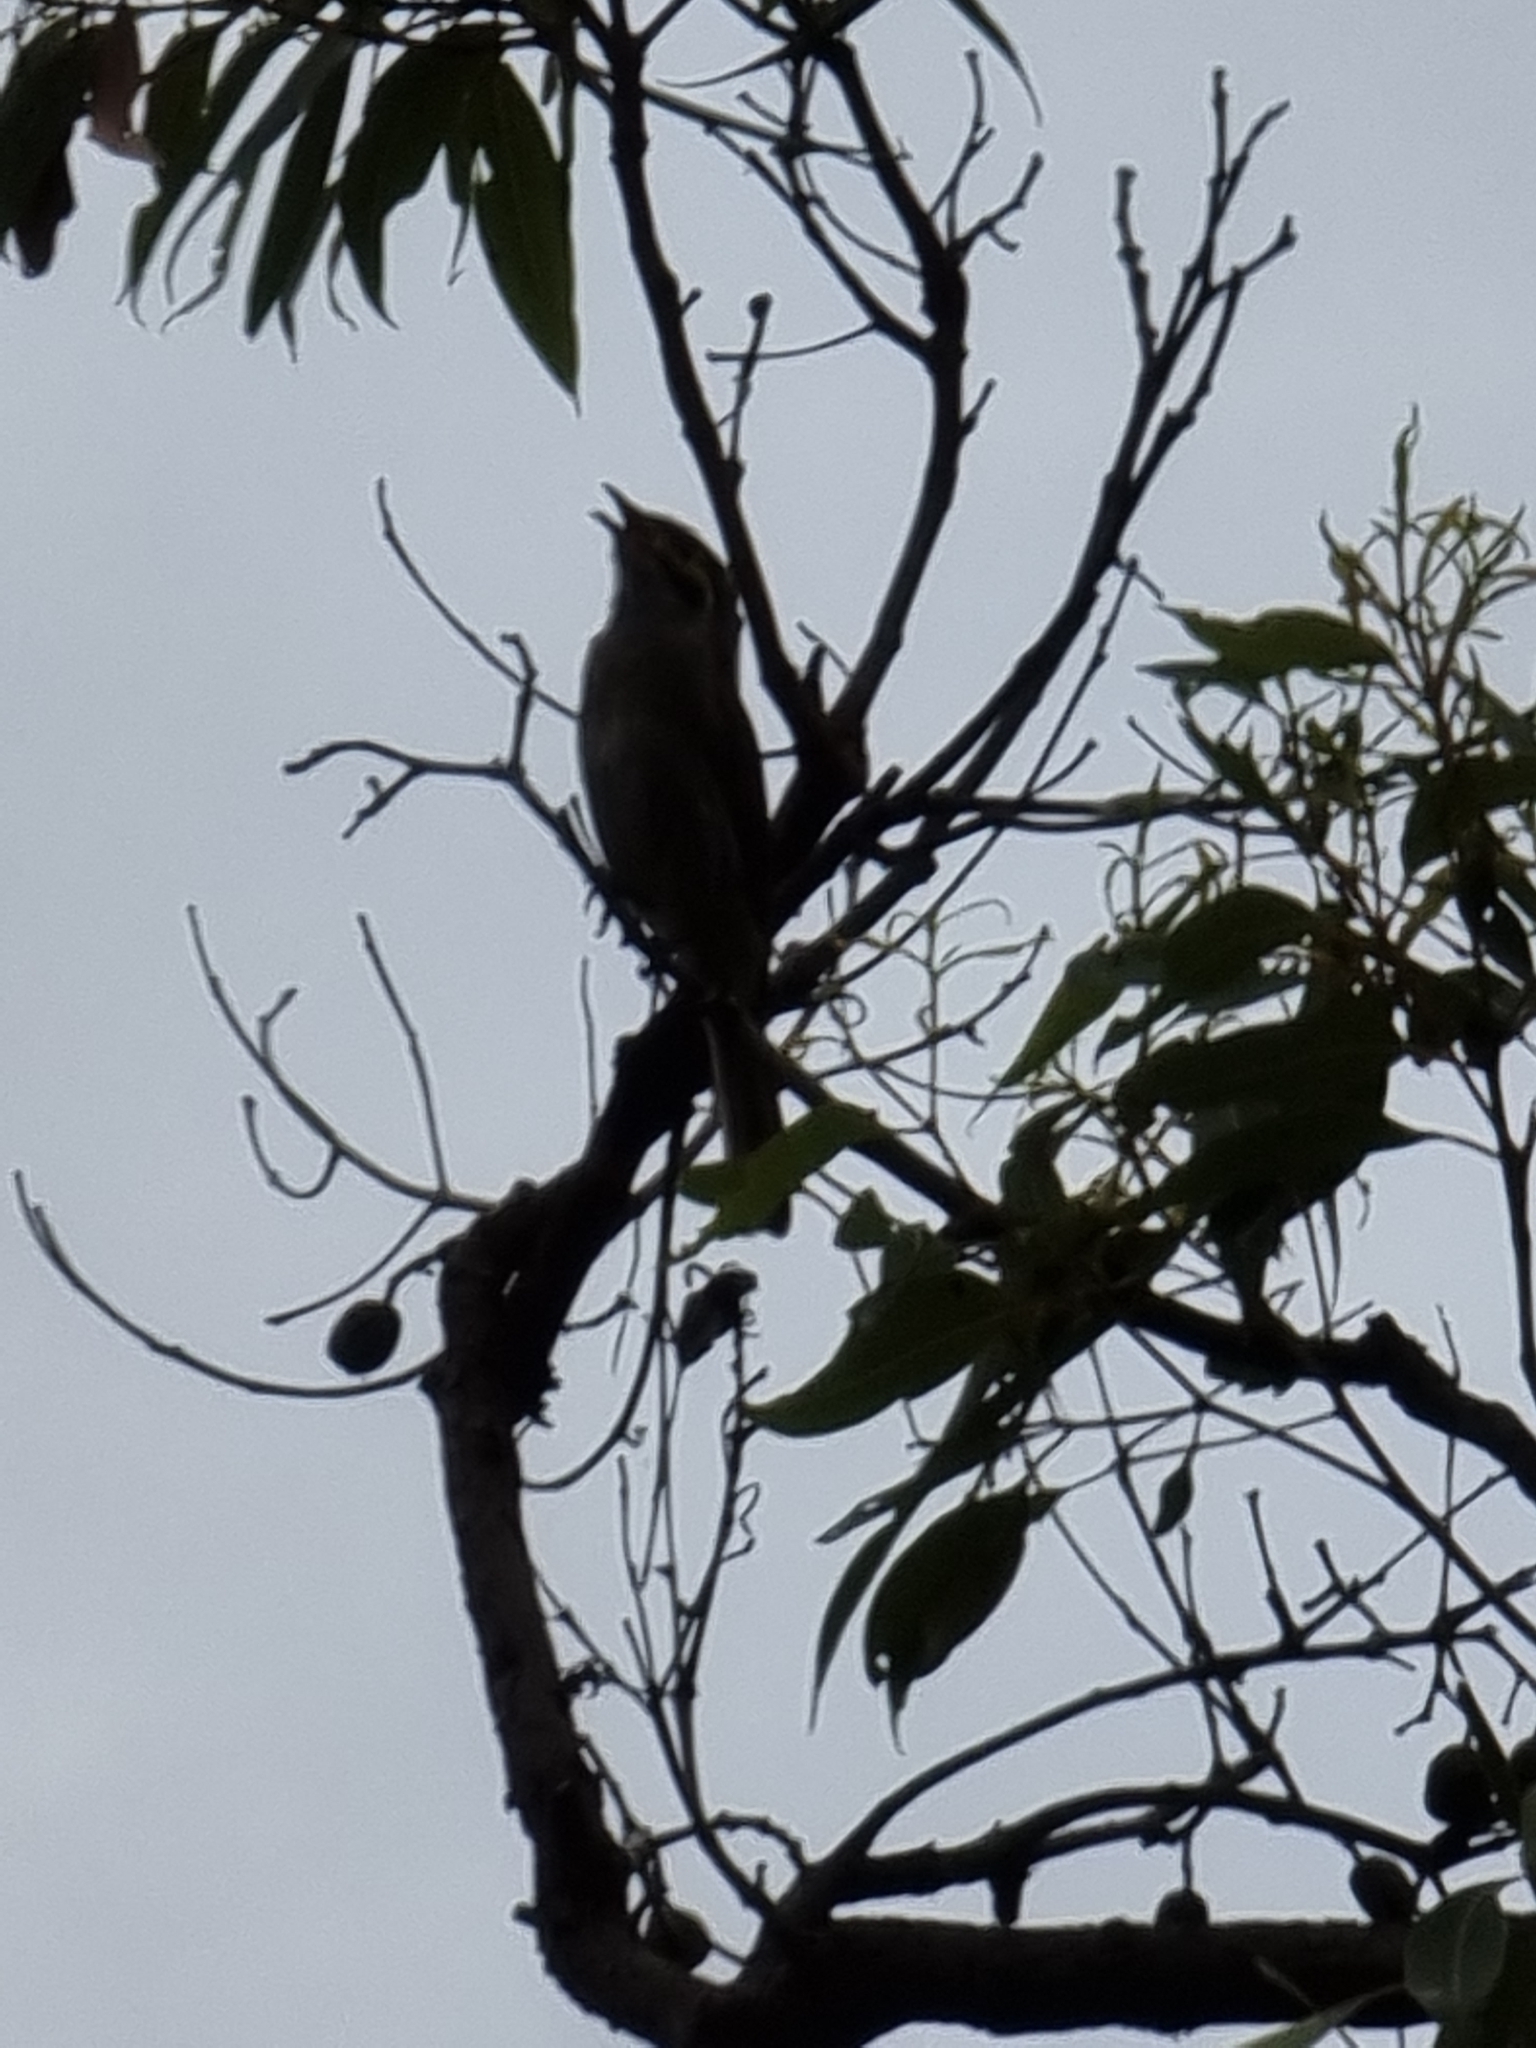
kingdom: Animalia
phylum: Chordata
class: Aves
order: Passeriformes
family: Meliphagidae
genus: Caligavis
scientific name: Caligavis chrysops
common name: Yellow-faced honeyeater
